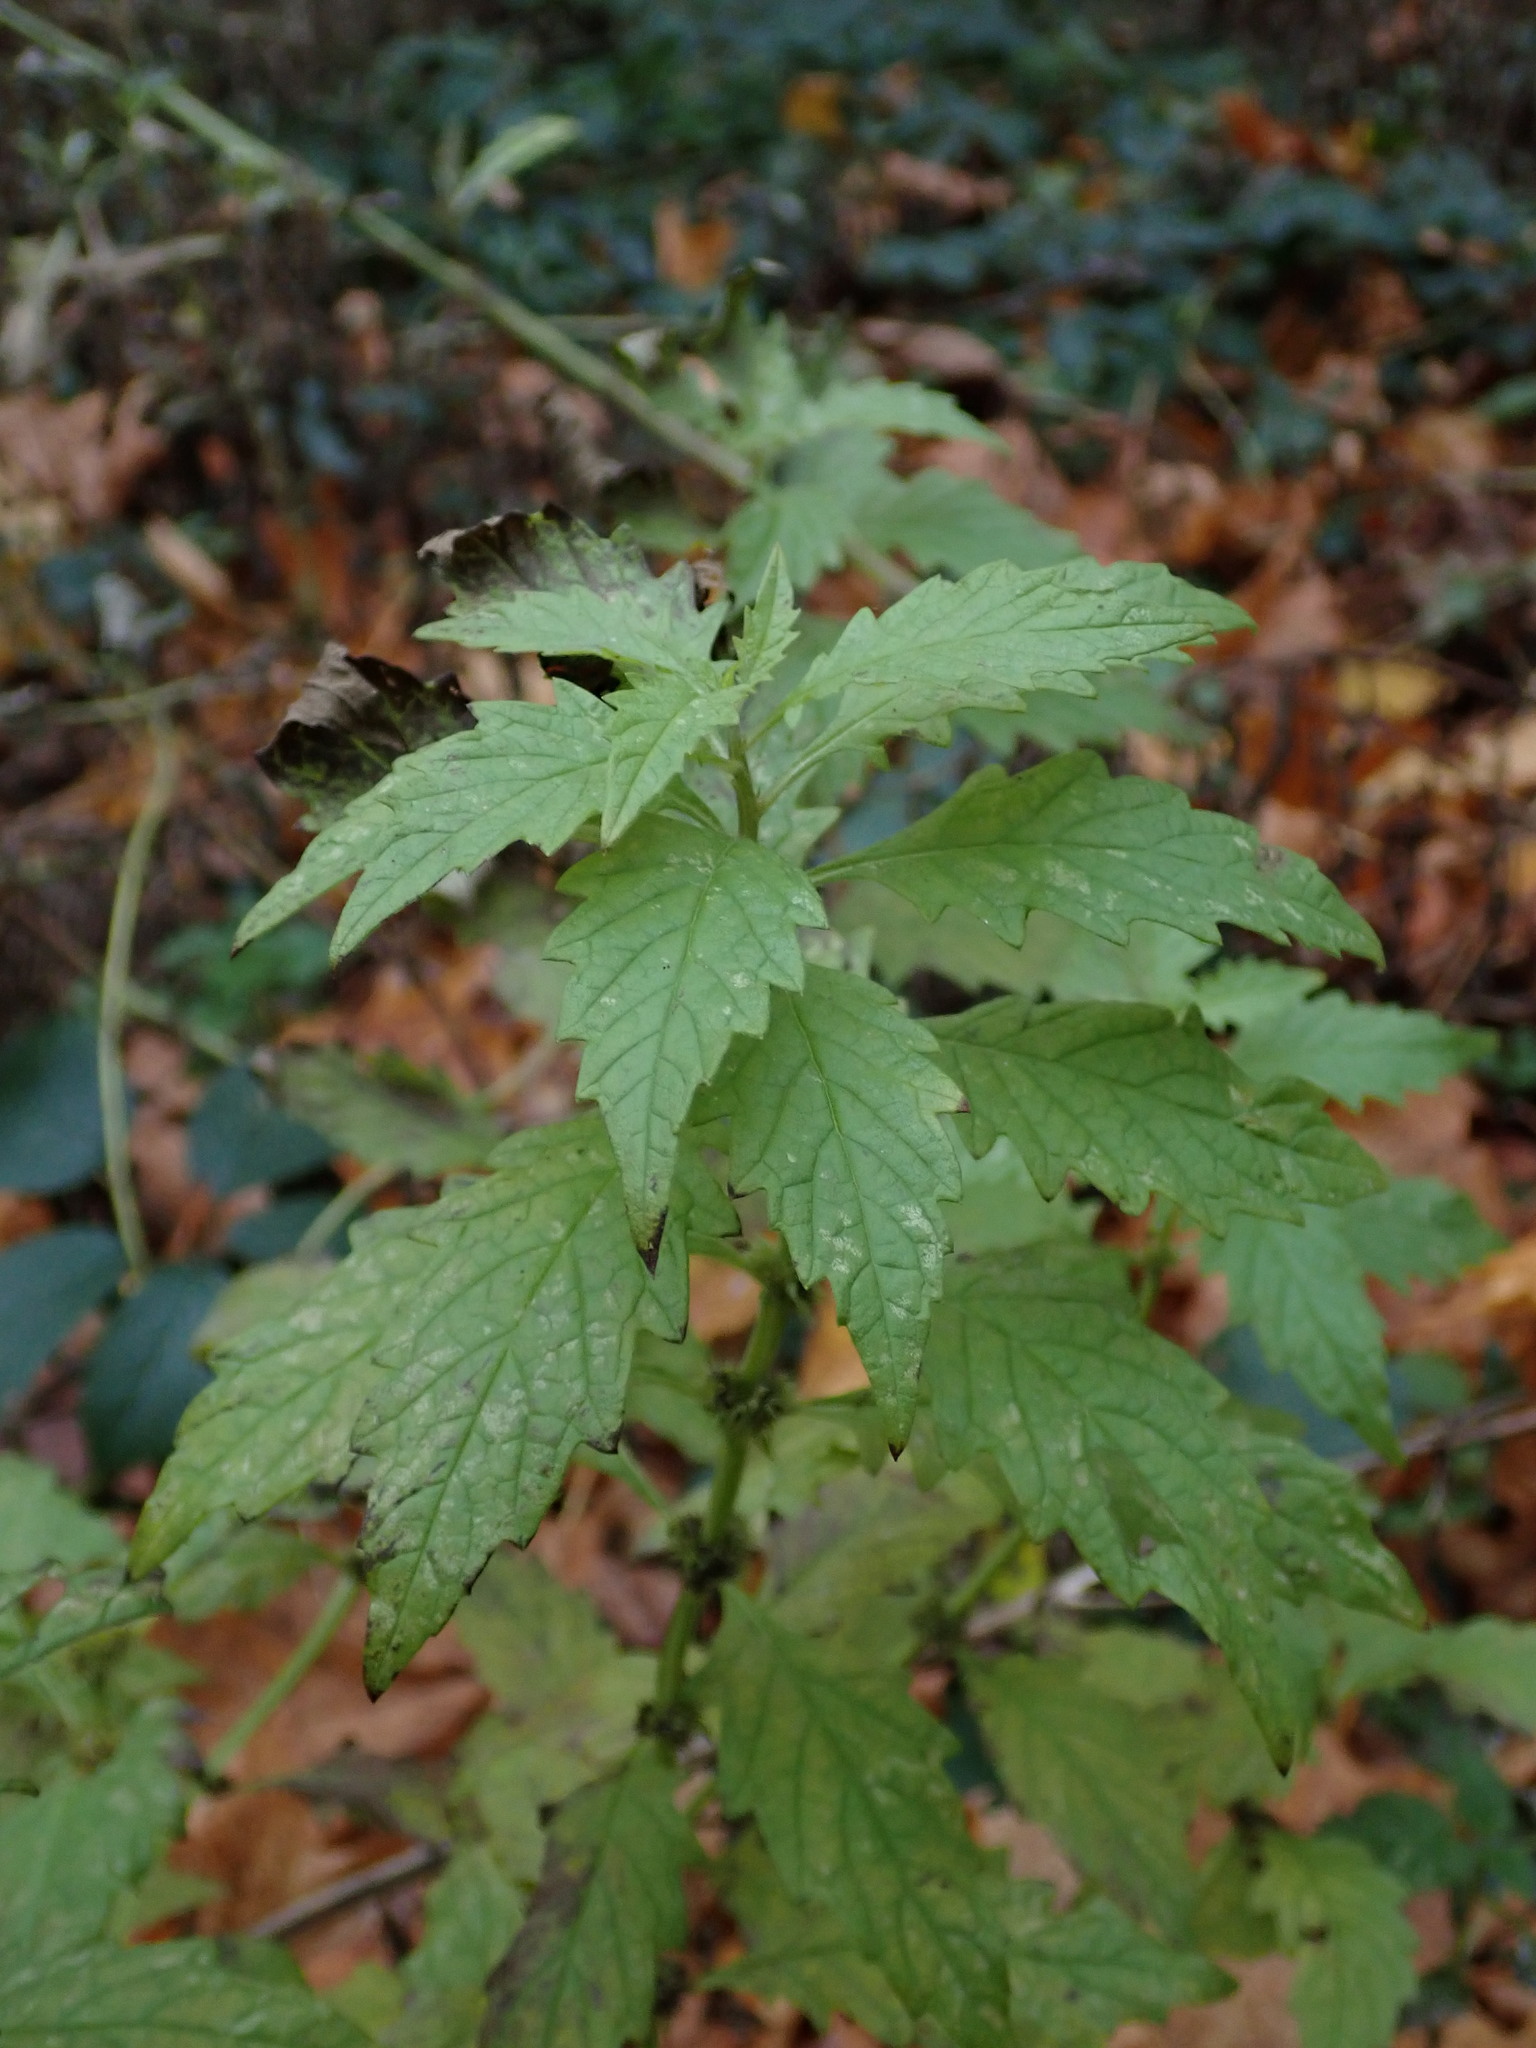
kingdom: Plantae
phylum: Tracheophyta
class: Magnoliopsida
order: Lamiales
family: Lamiaceae
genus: Lycopus
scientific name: Lycopus europaeus
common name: European bugleweed
